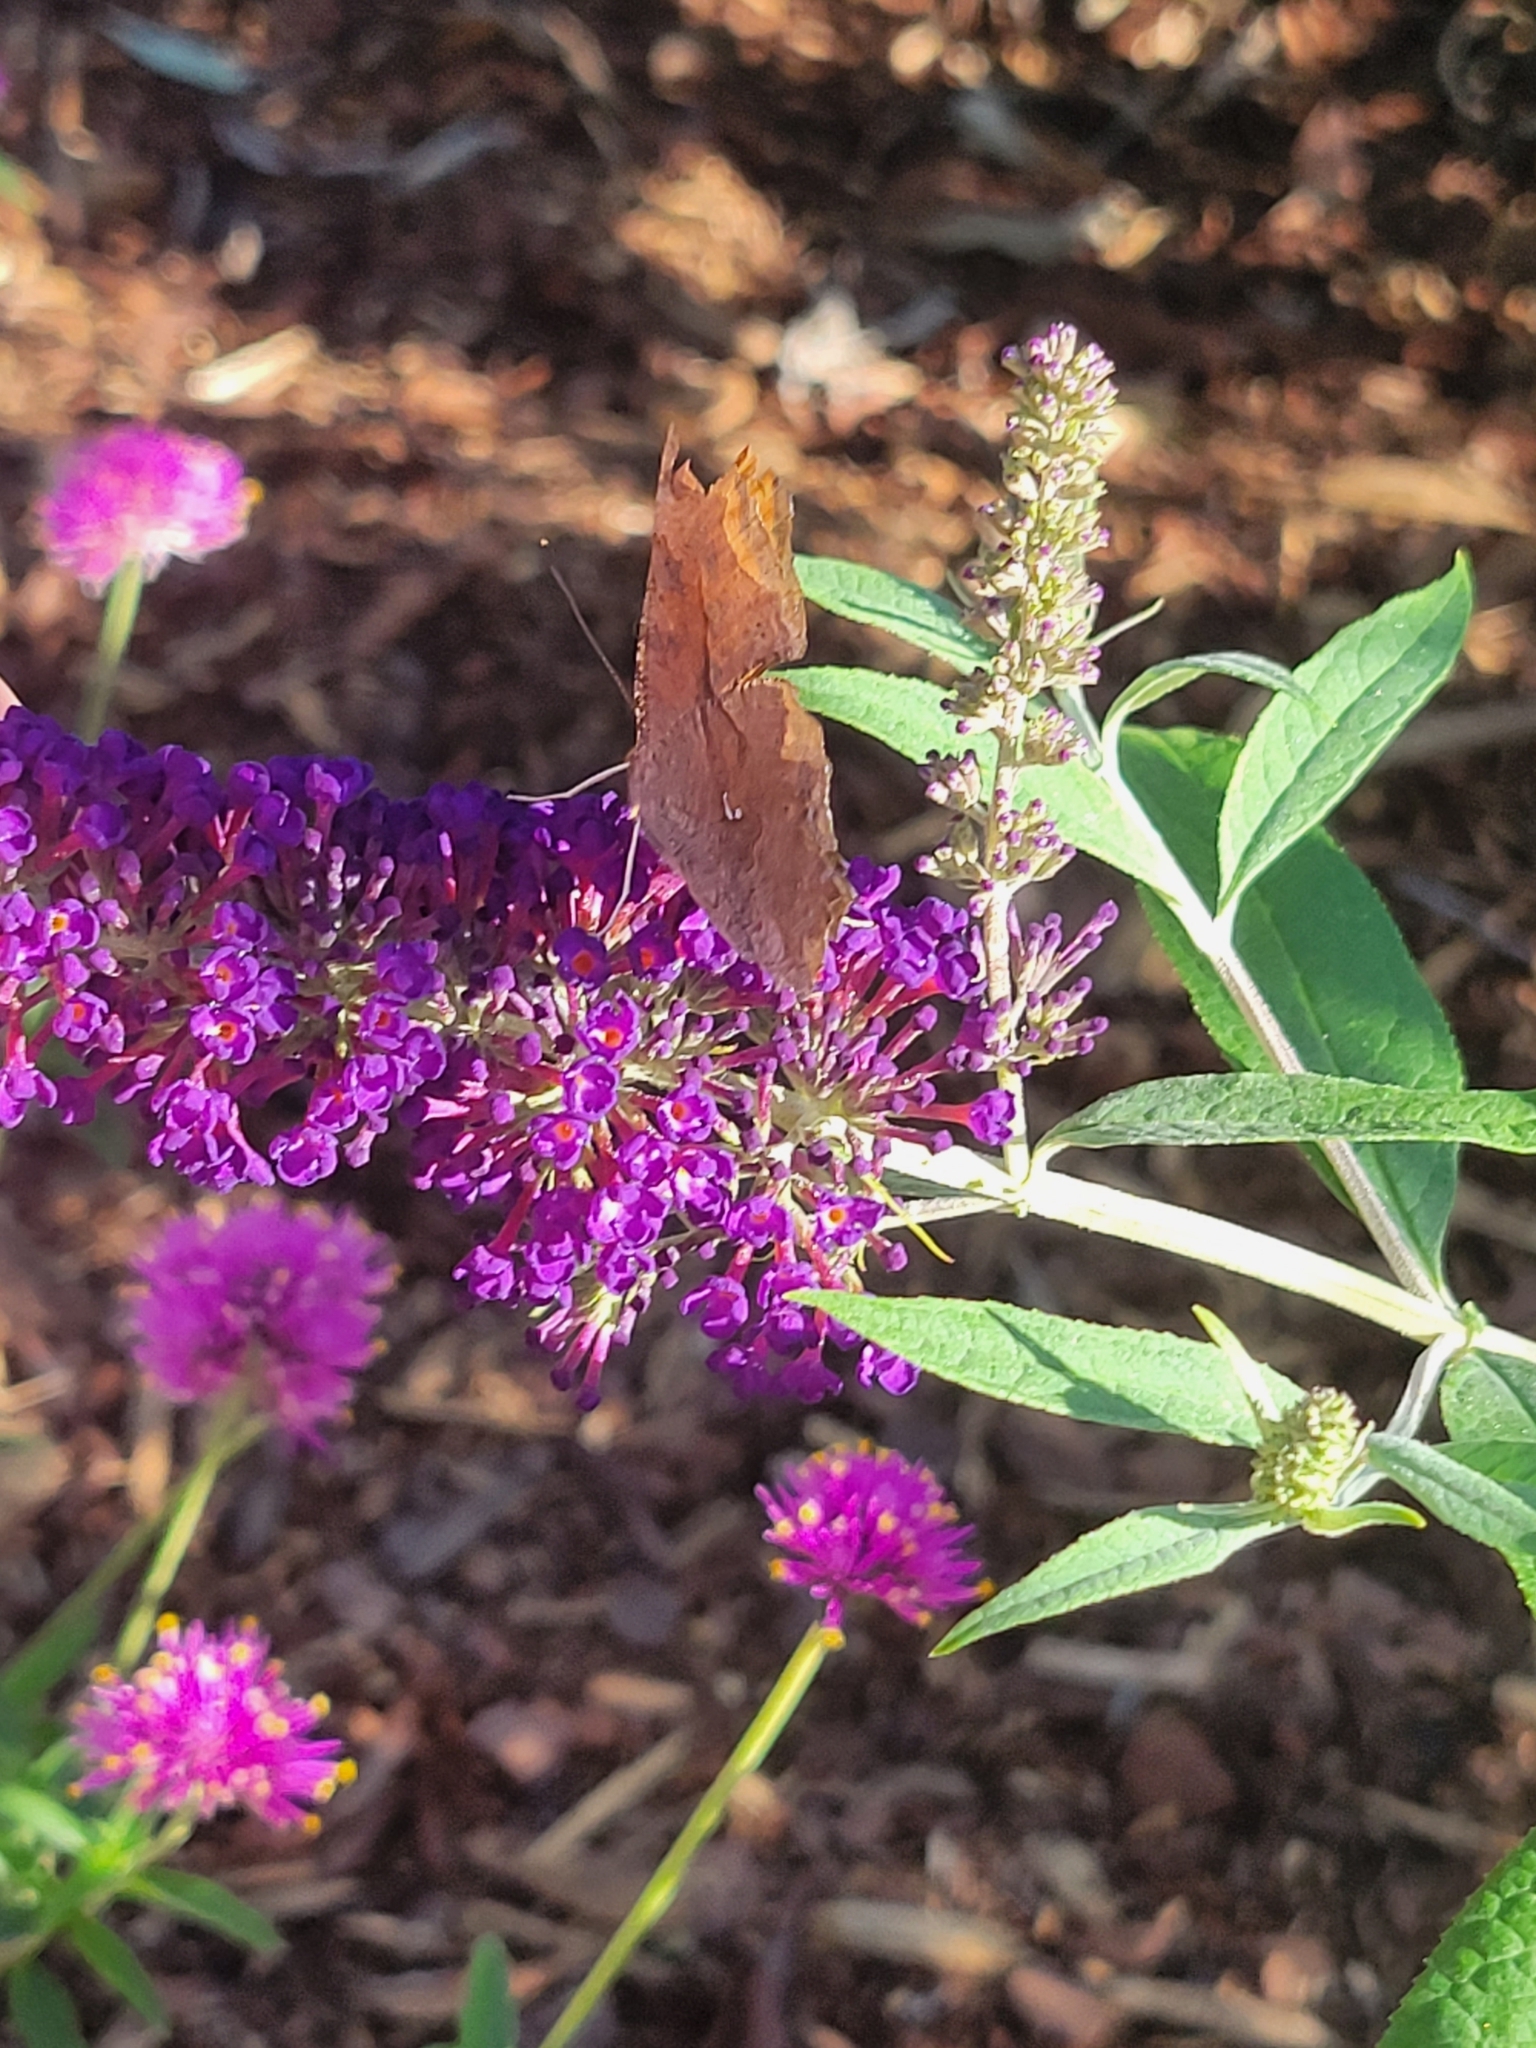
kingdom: Animalia
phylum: Arthropoda
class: Insecta
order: Lepidoptera
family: Nymphalidae
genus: Polygonia
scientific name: Polygonia interrogationis
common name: Question mark
